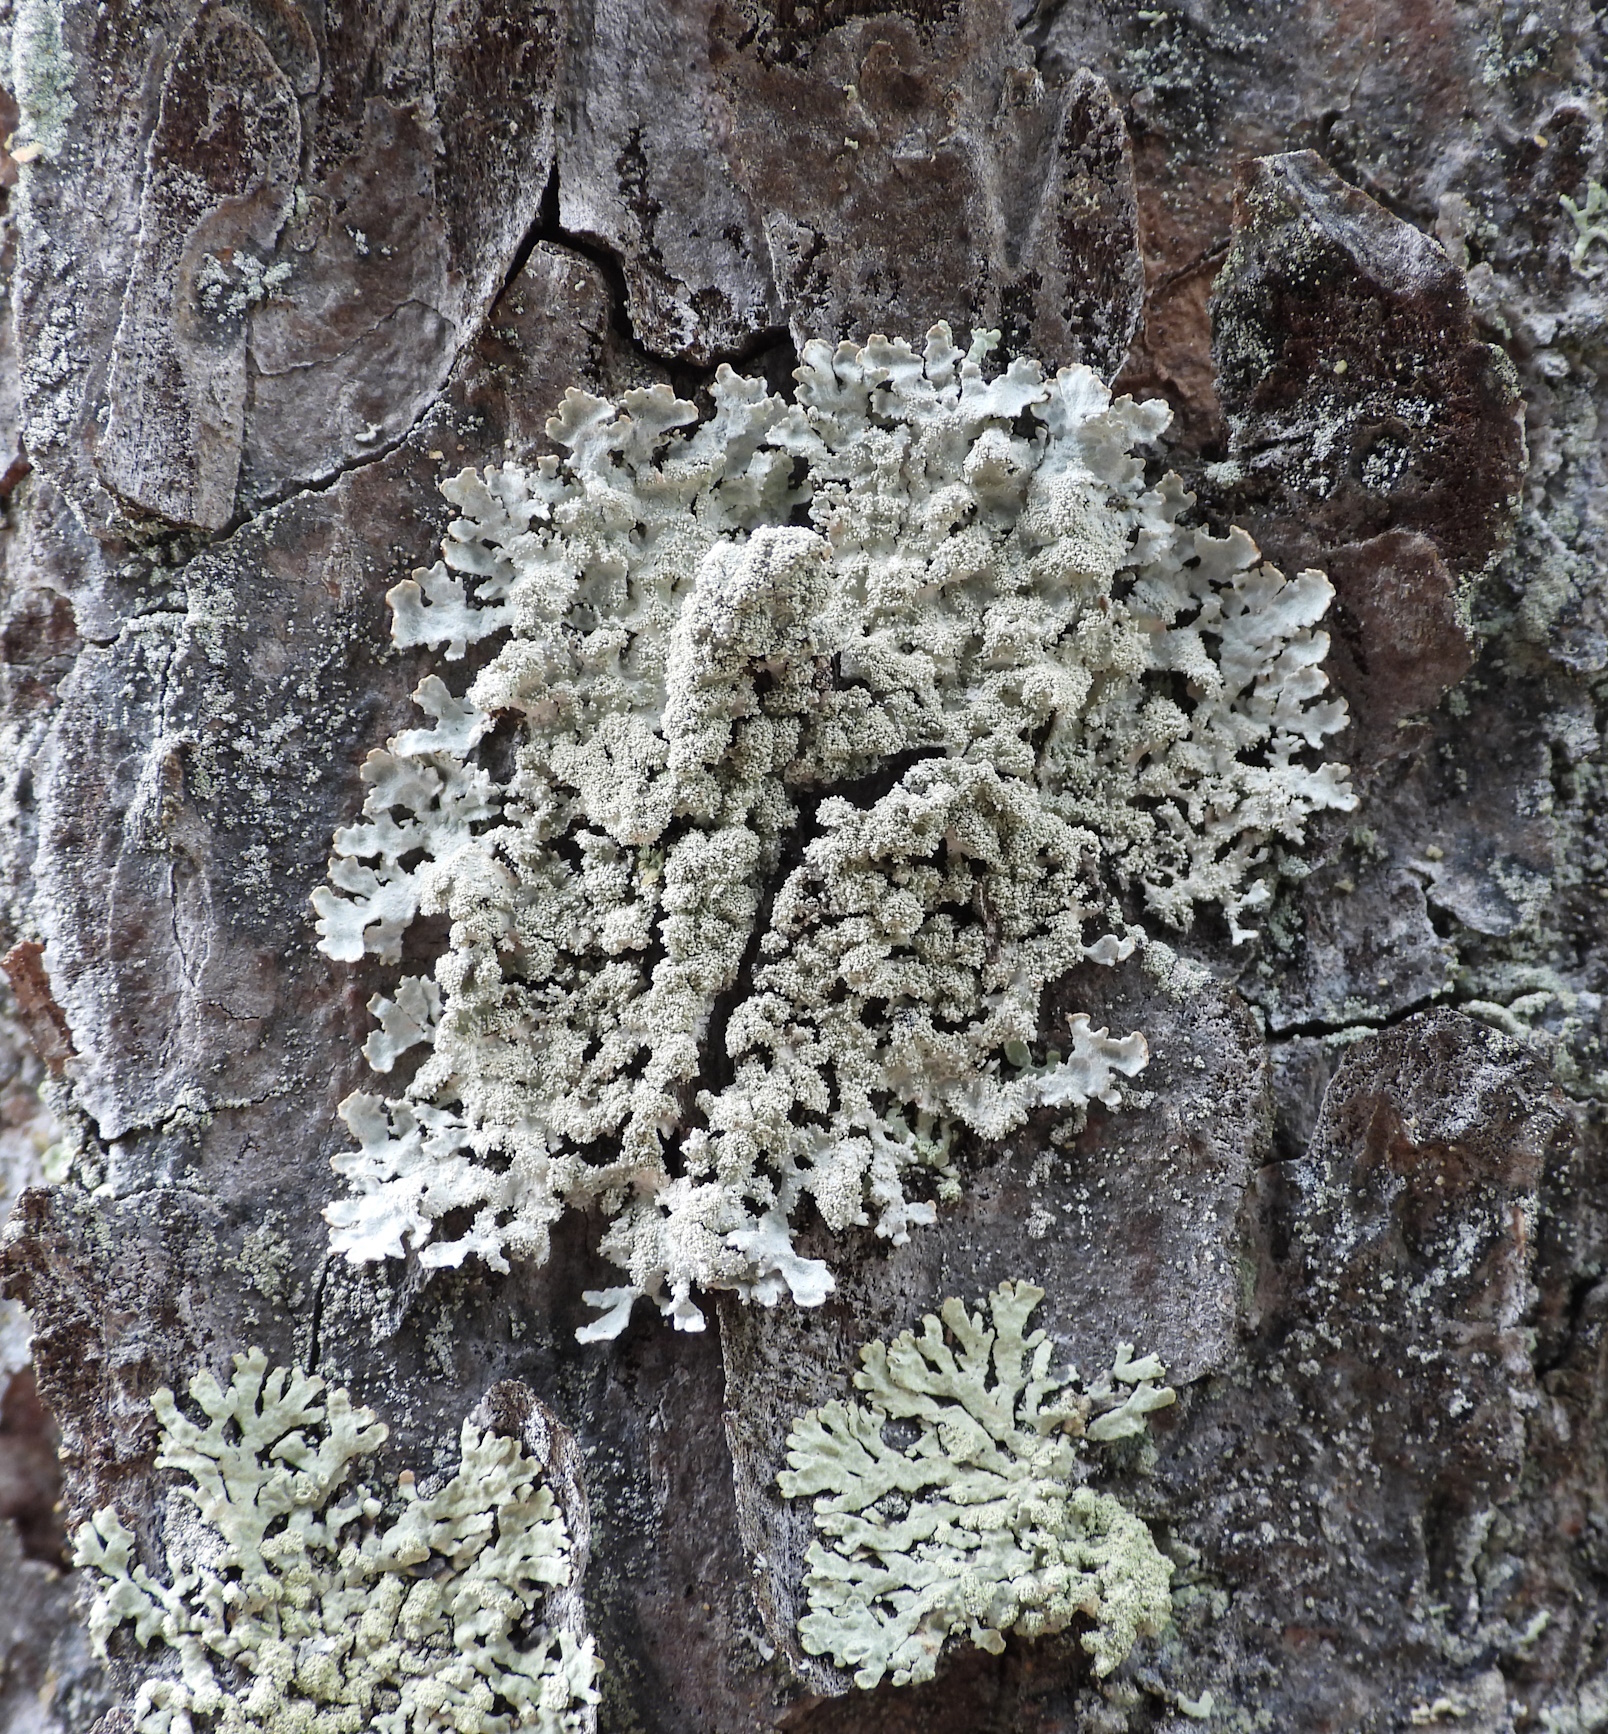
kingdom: Fungi
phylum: Ascomycota
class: Lecanoromycetes
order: Lecanorales
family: Parmeliaceae
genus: Imshaugia
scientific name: Imshaugia aleurites
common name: Salted starburst lichen
